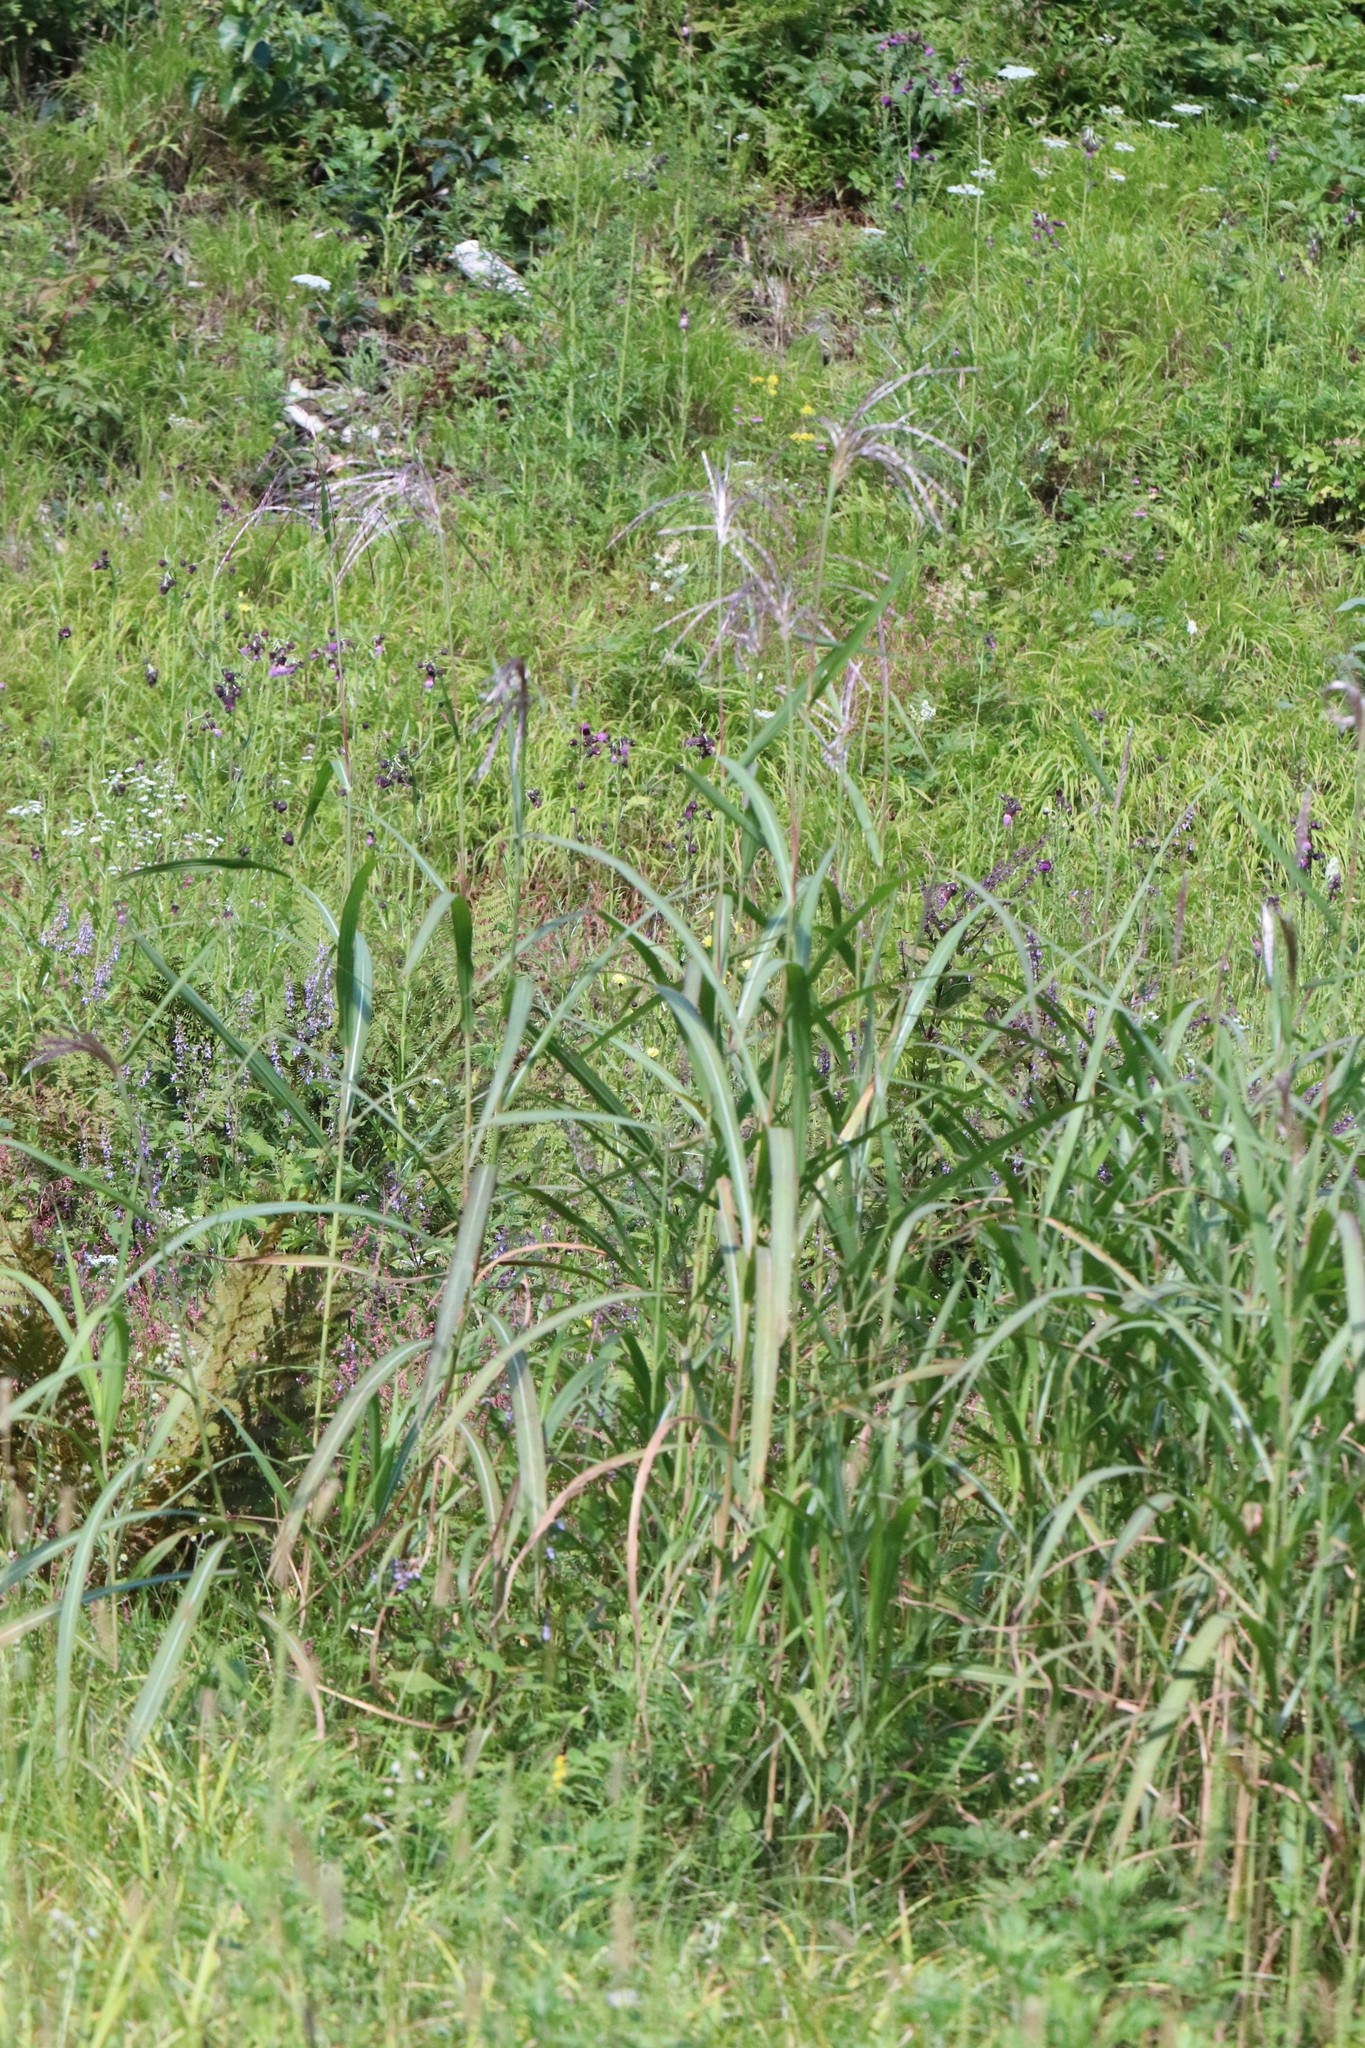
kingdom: Plantae
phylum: Tracheophyta
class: Liliopsida
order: Poales
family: Poaceae
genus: Miscanthus
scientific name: Miscanthus sacchariflorus
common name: Amur silver grass
